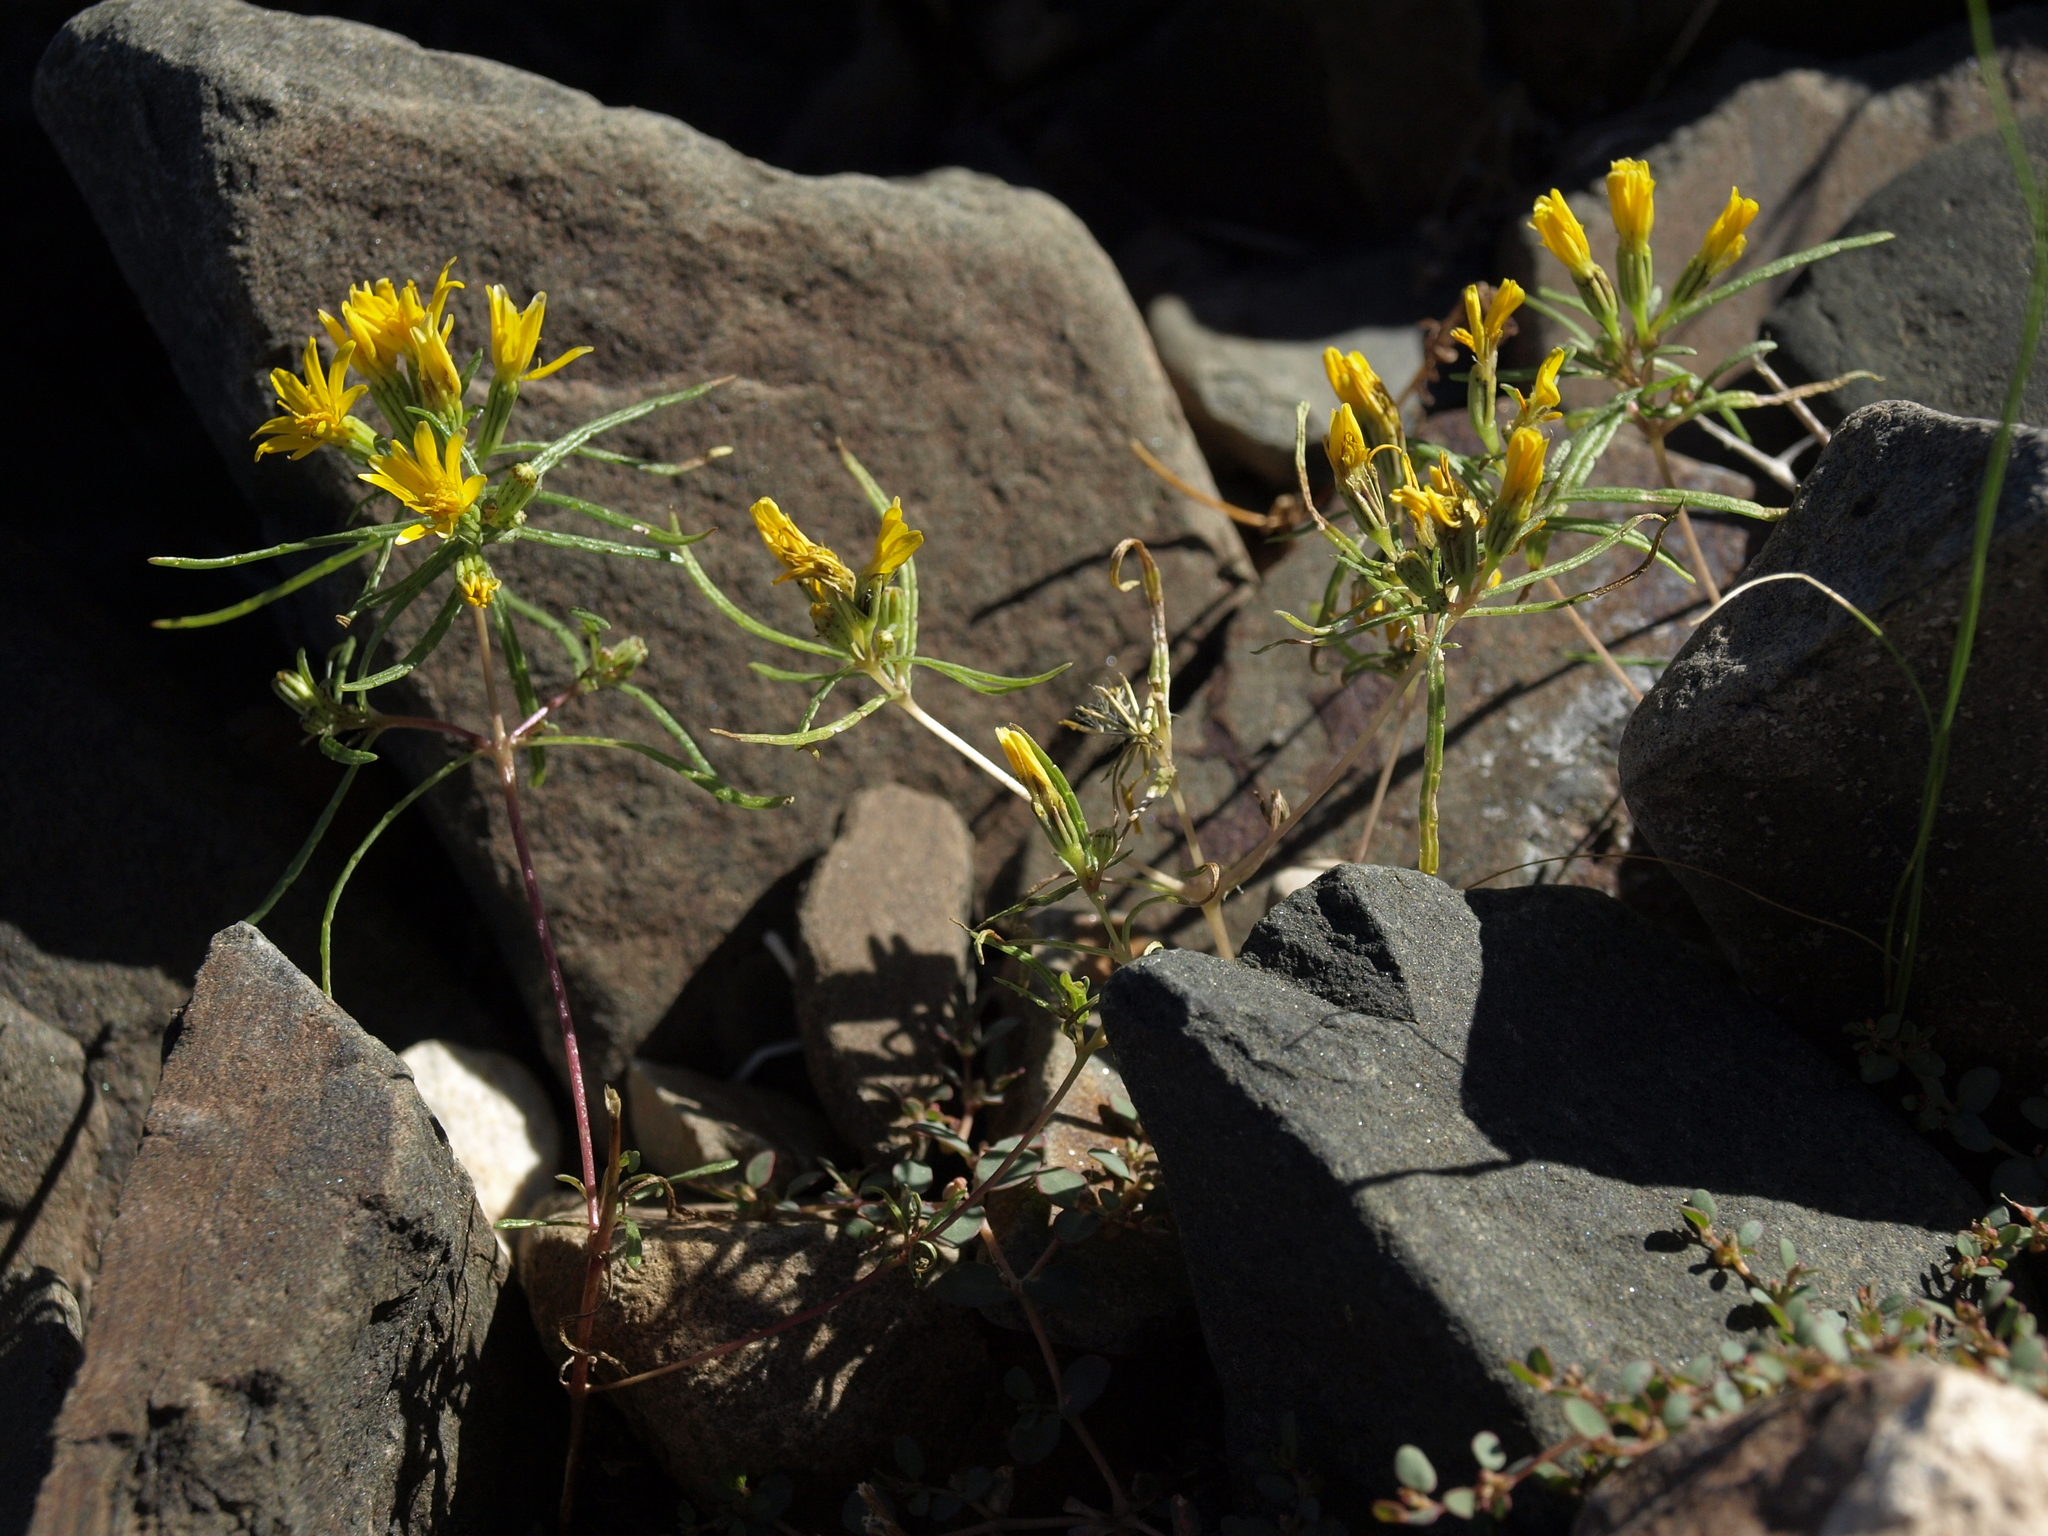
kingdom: Plantae
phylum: Tracheophyta
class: Magnoliopsida
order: Asterales
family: Asteraceae
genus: Pectis
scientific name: Pectis papposa
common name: Many-bristle chinchweed
